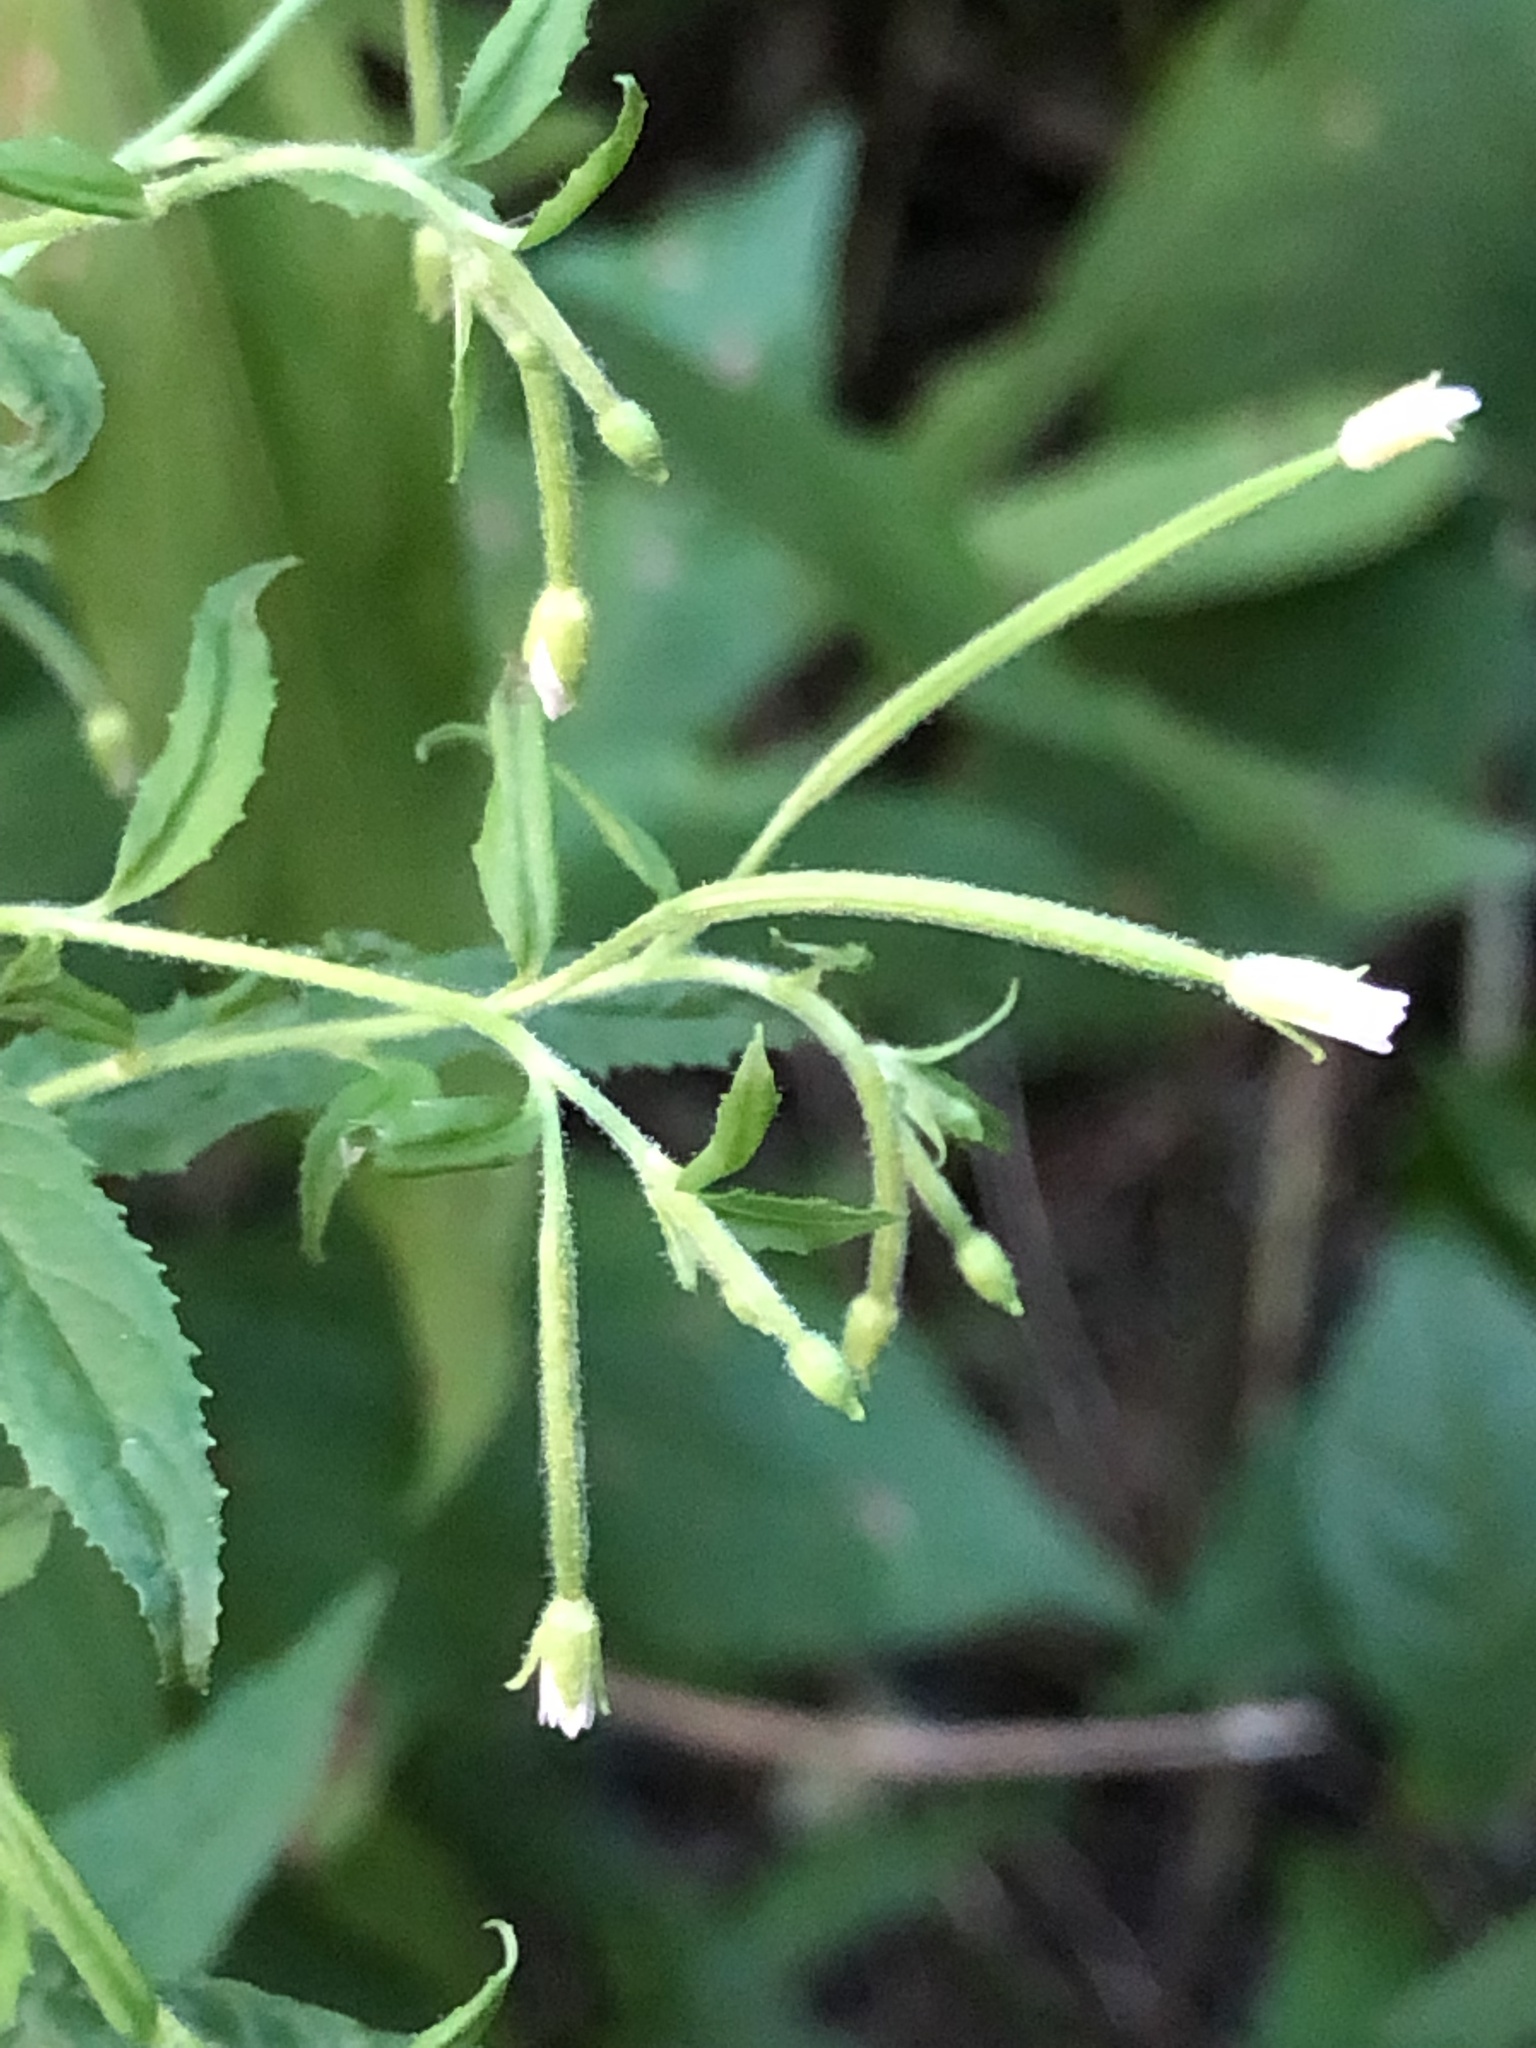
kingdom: Plantae
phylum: Tracheophyta
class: Magnoliopsida
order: Myrtales
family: Onagraceae
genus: Epilobium
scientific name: Epilobium coloratum
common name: Bronze willowherb
